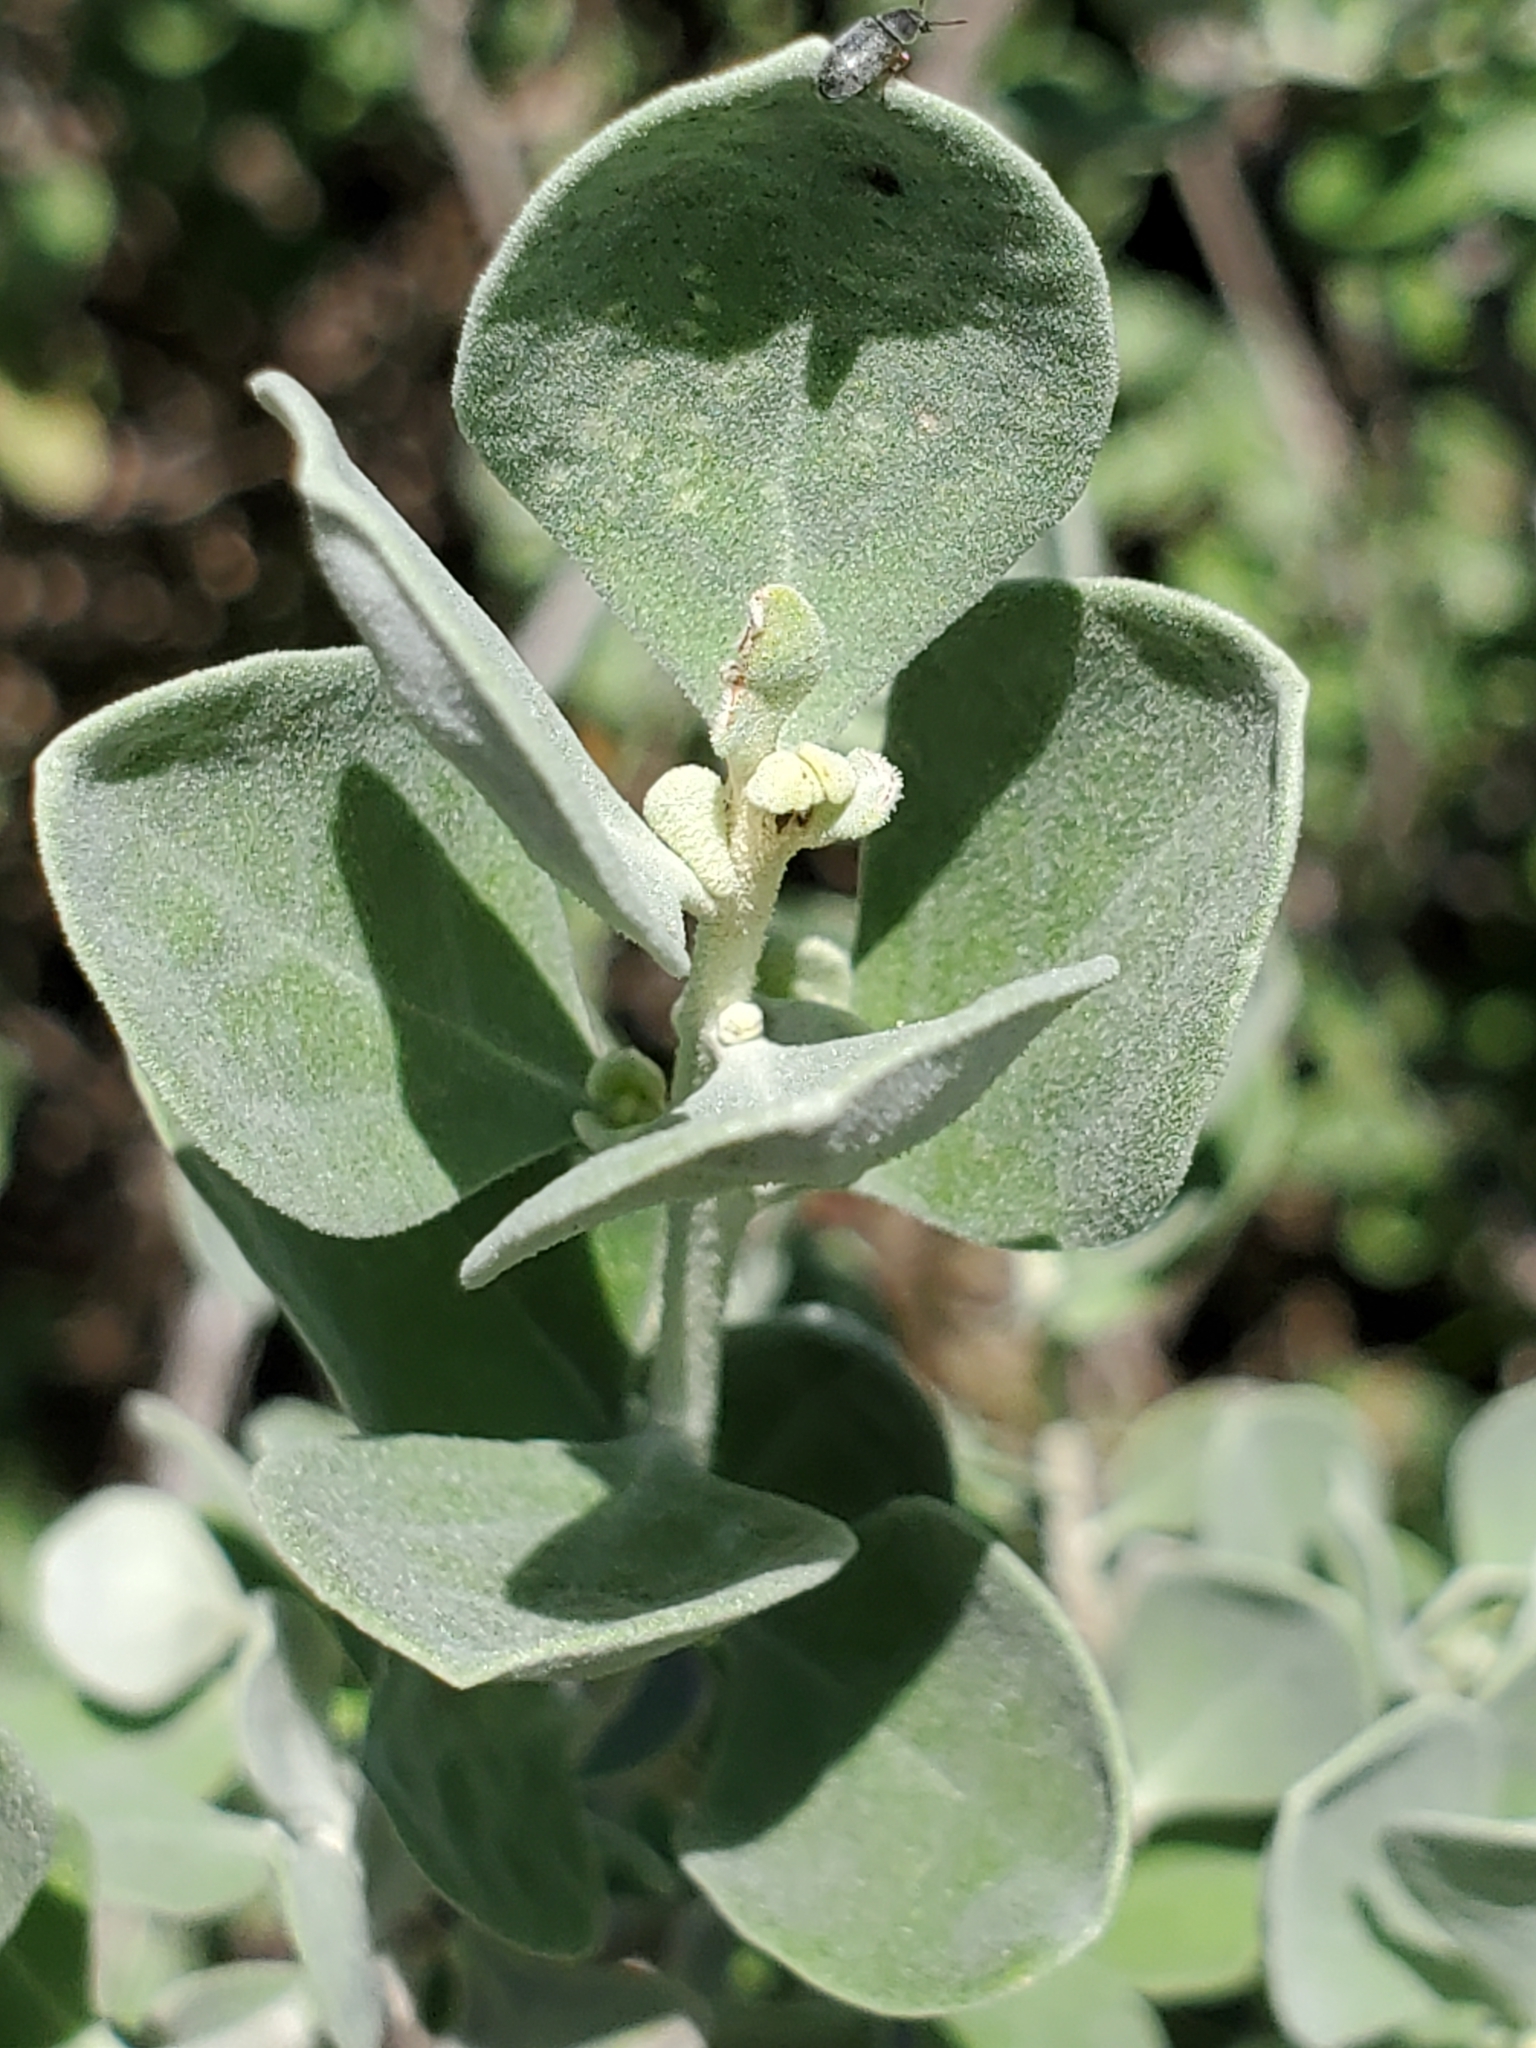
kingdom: Plantae
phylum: Tracheophyta
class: Magnoliopsida
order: Lamiales
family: Scrophulariaceae
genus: Leucophyllum
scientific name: Leucophyllum frutescens
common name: Texas silverleaf
